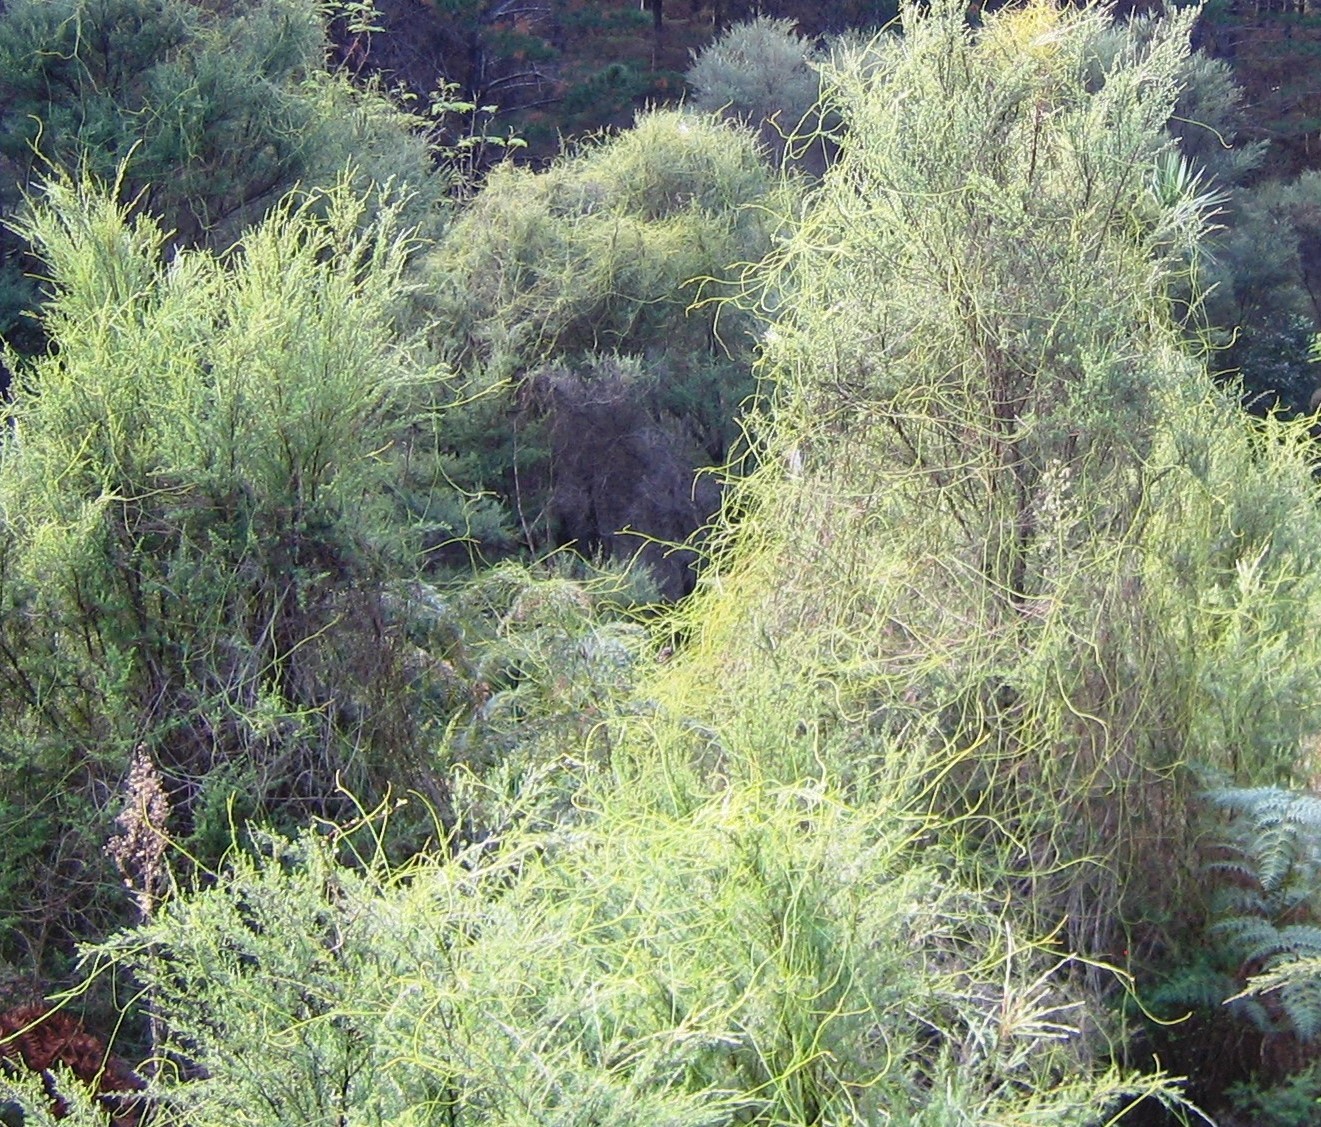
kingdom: Plantae
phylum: Tracheophyta
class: Magnoliopsida
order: Laurales
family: Lauraceae
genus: Cassytha
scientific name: Cassytha paniculata
